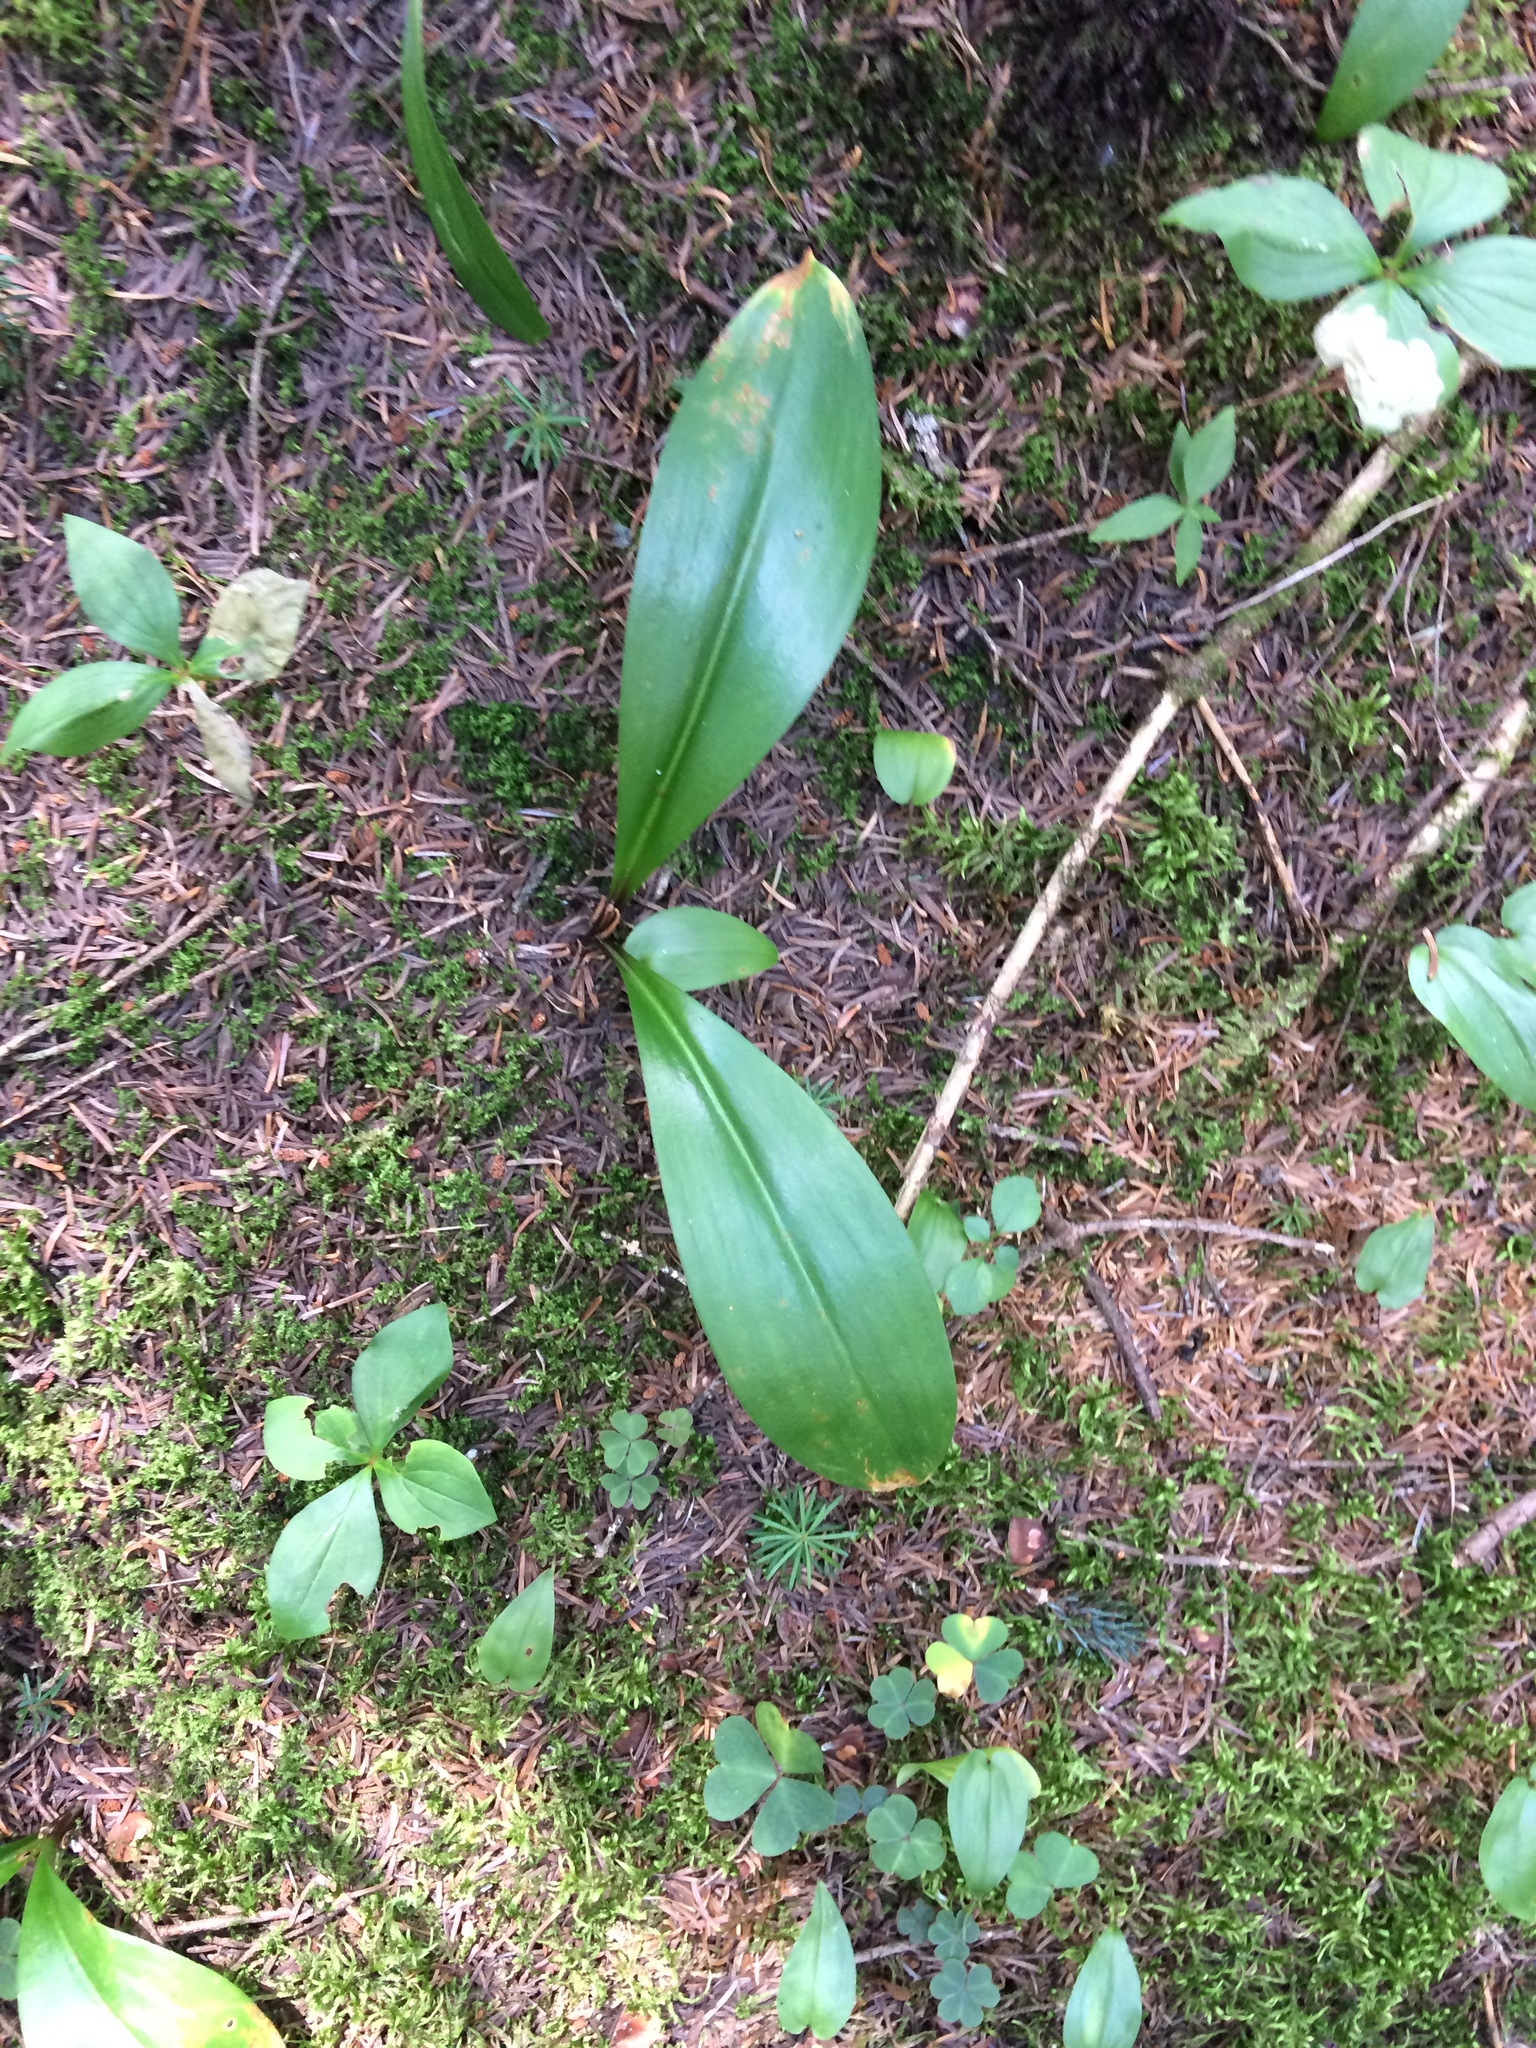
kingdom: Plantae
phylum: Tracheophyta
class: Liliopsida
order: Liliales
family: Liliaceae
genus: Clintonia
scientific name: Clintonia borealis
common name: Yellow clintonia
